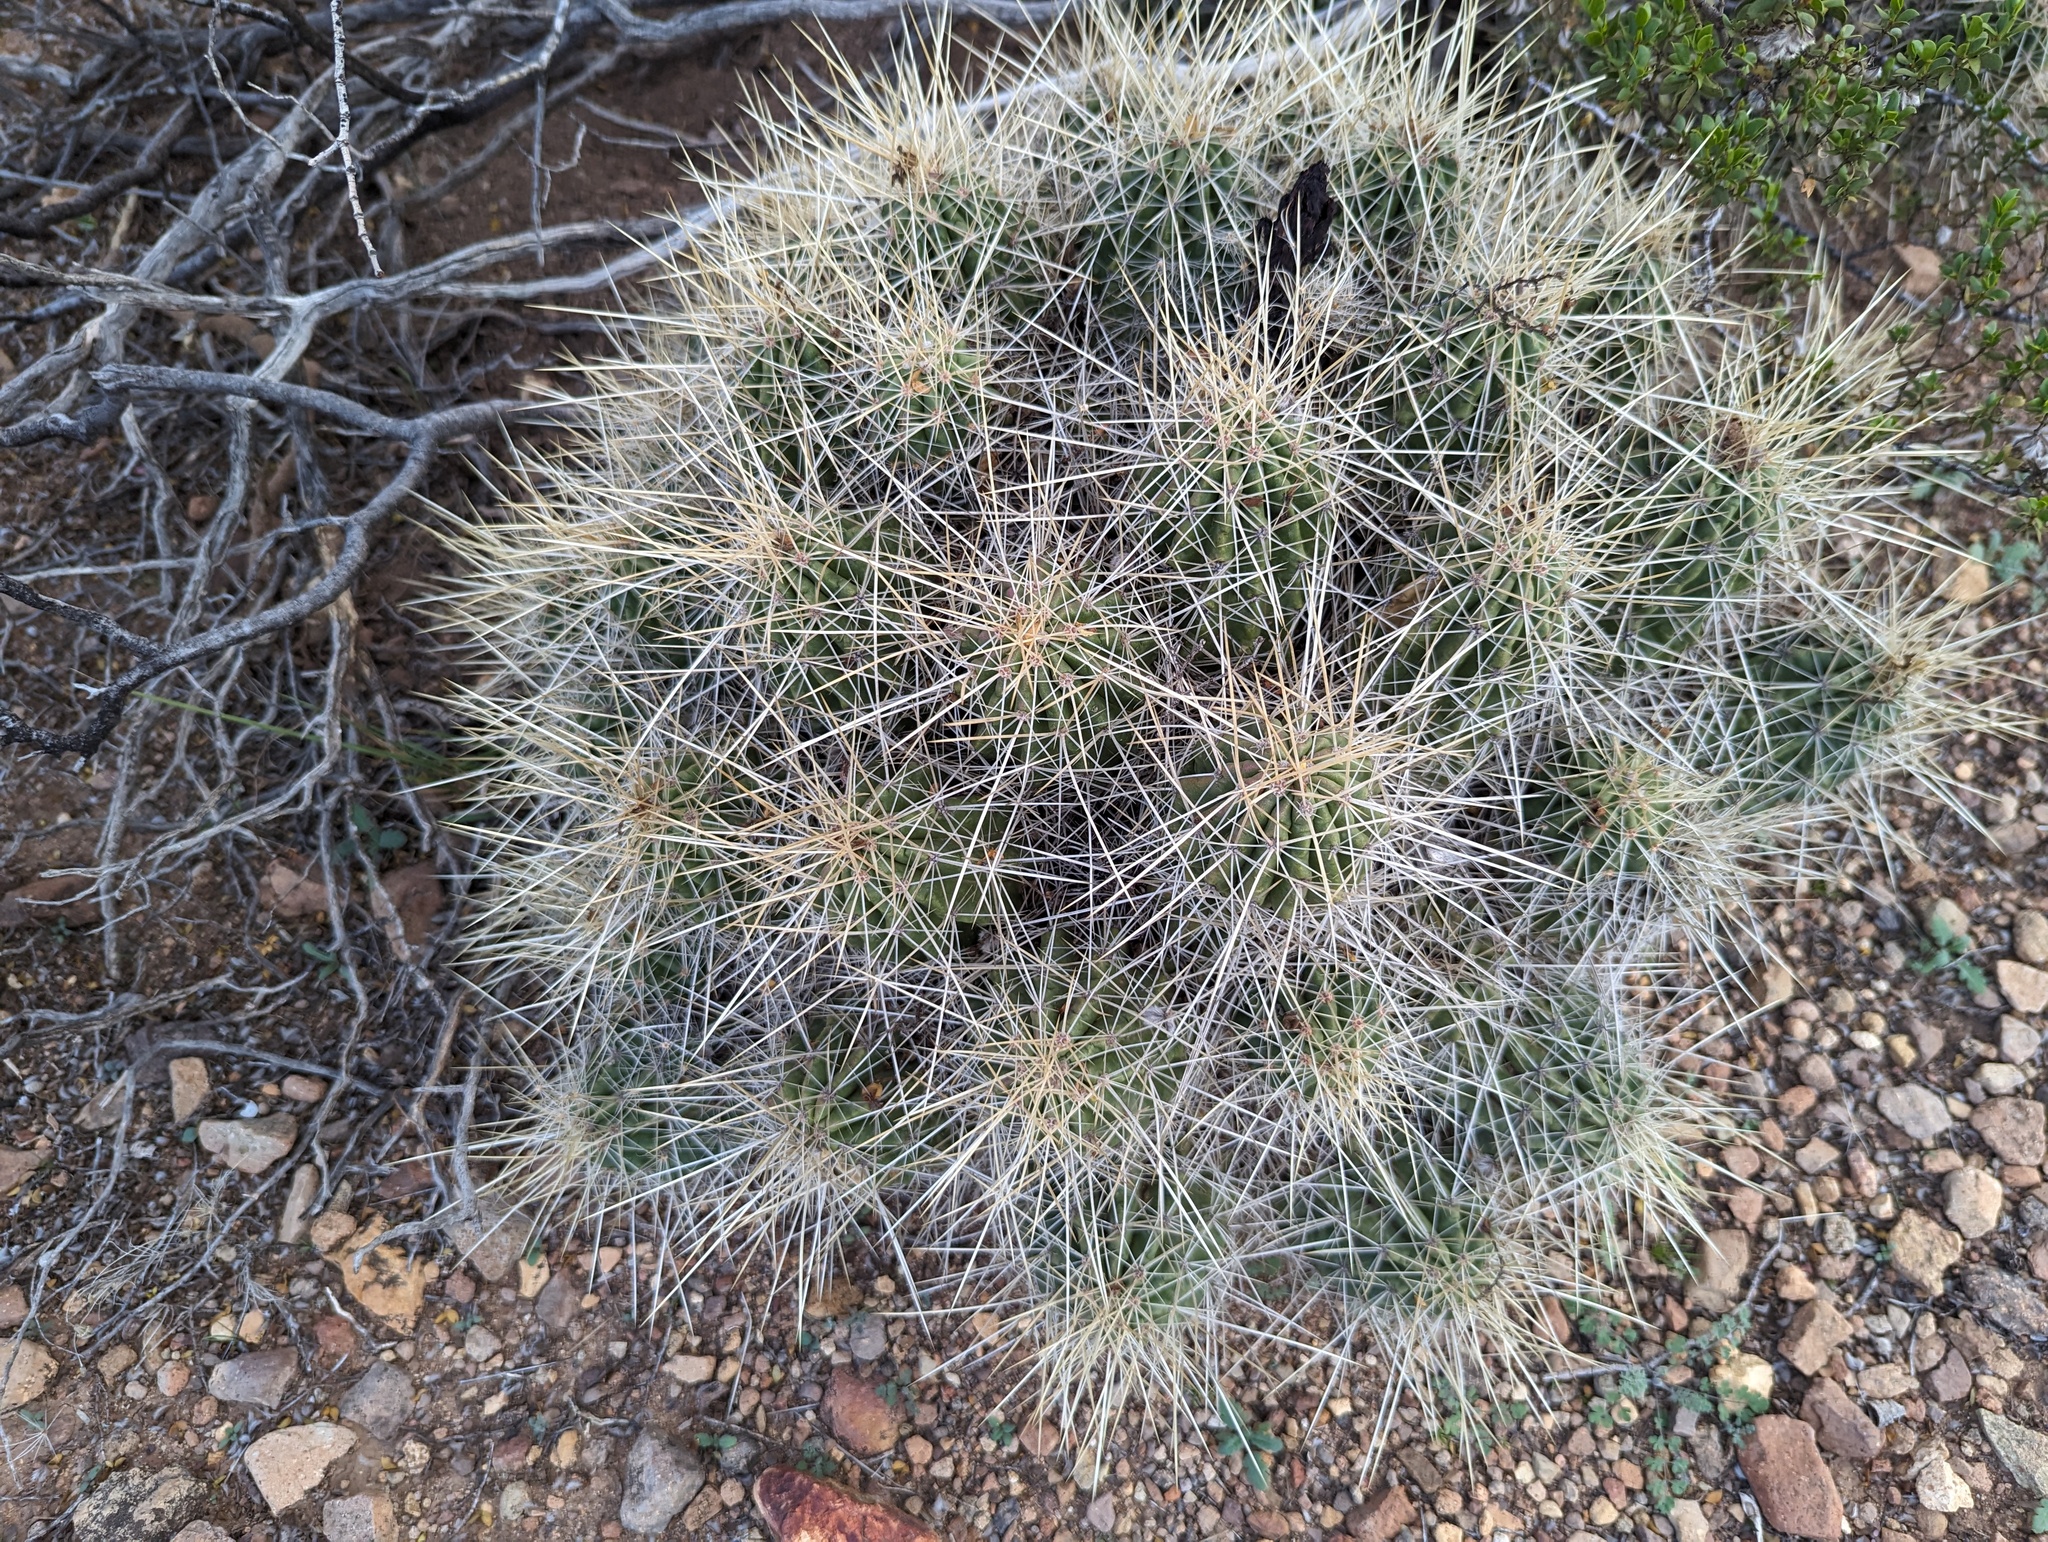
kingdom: Plantae
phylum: Tracheophyta
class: Magnoliopsida
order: Caryophyllales
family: Cactaceae
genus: Echinocereus
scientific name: Echinocereus stramineus
